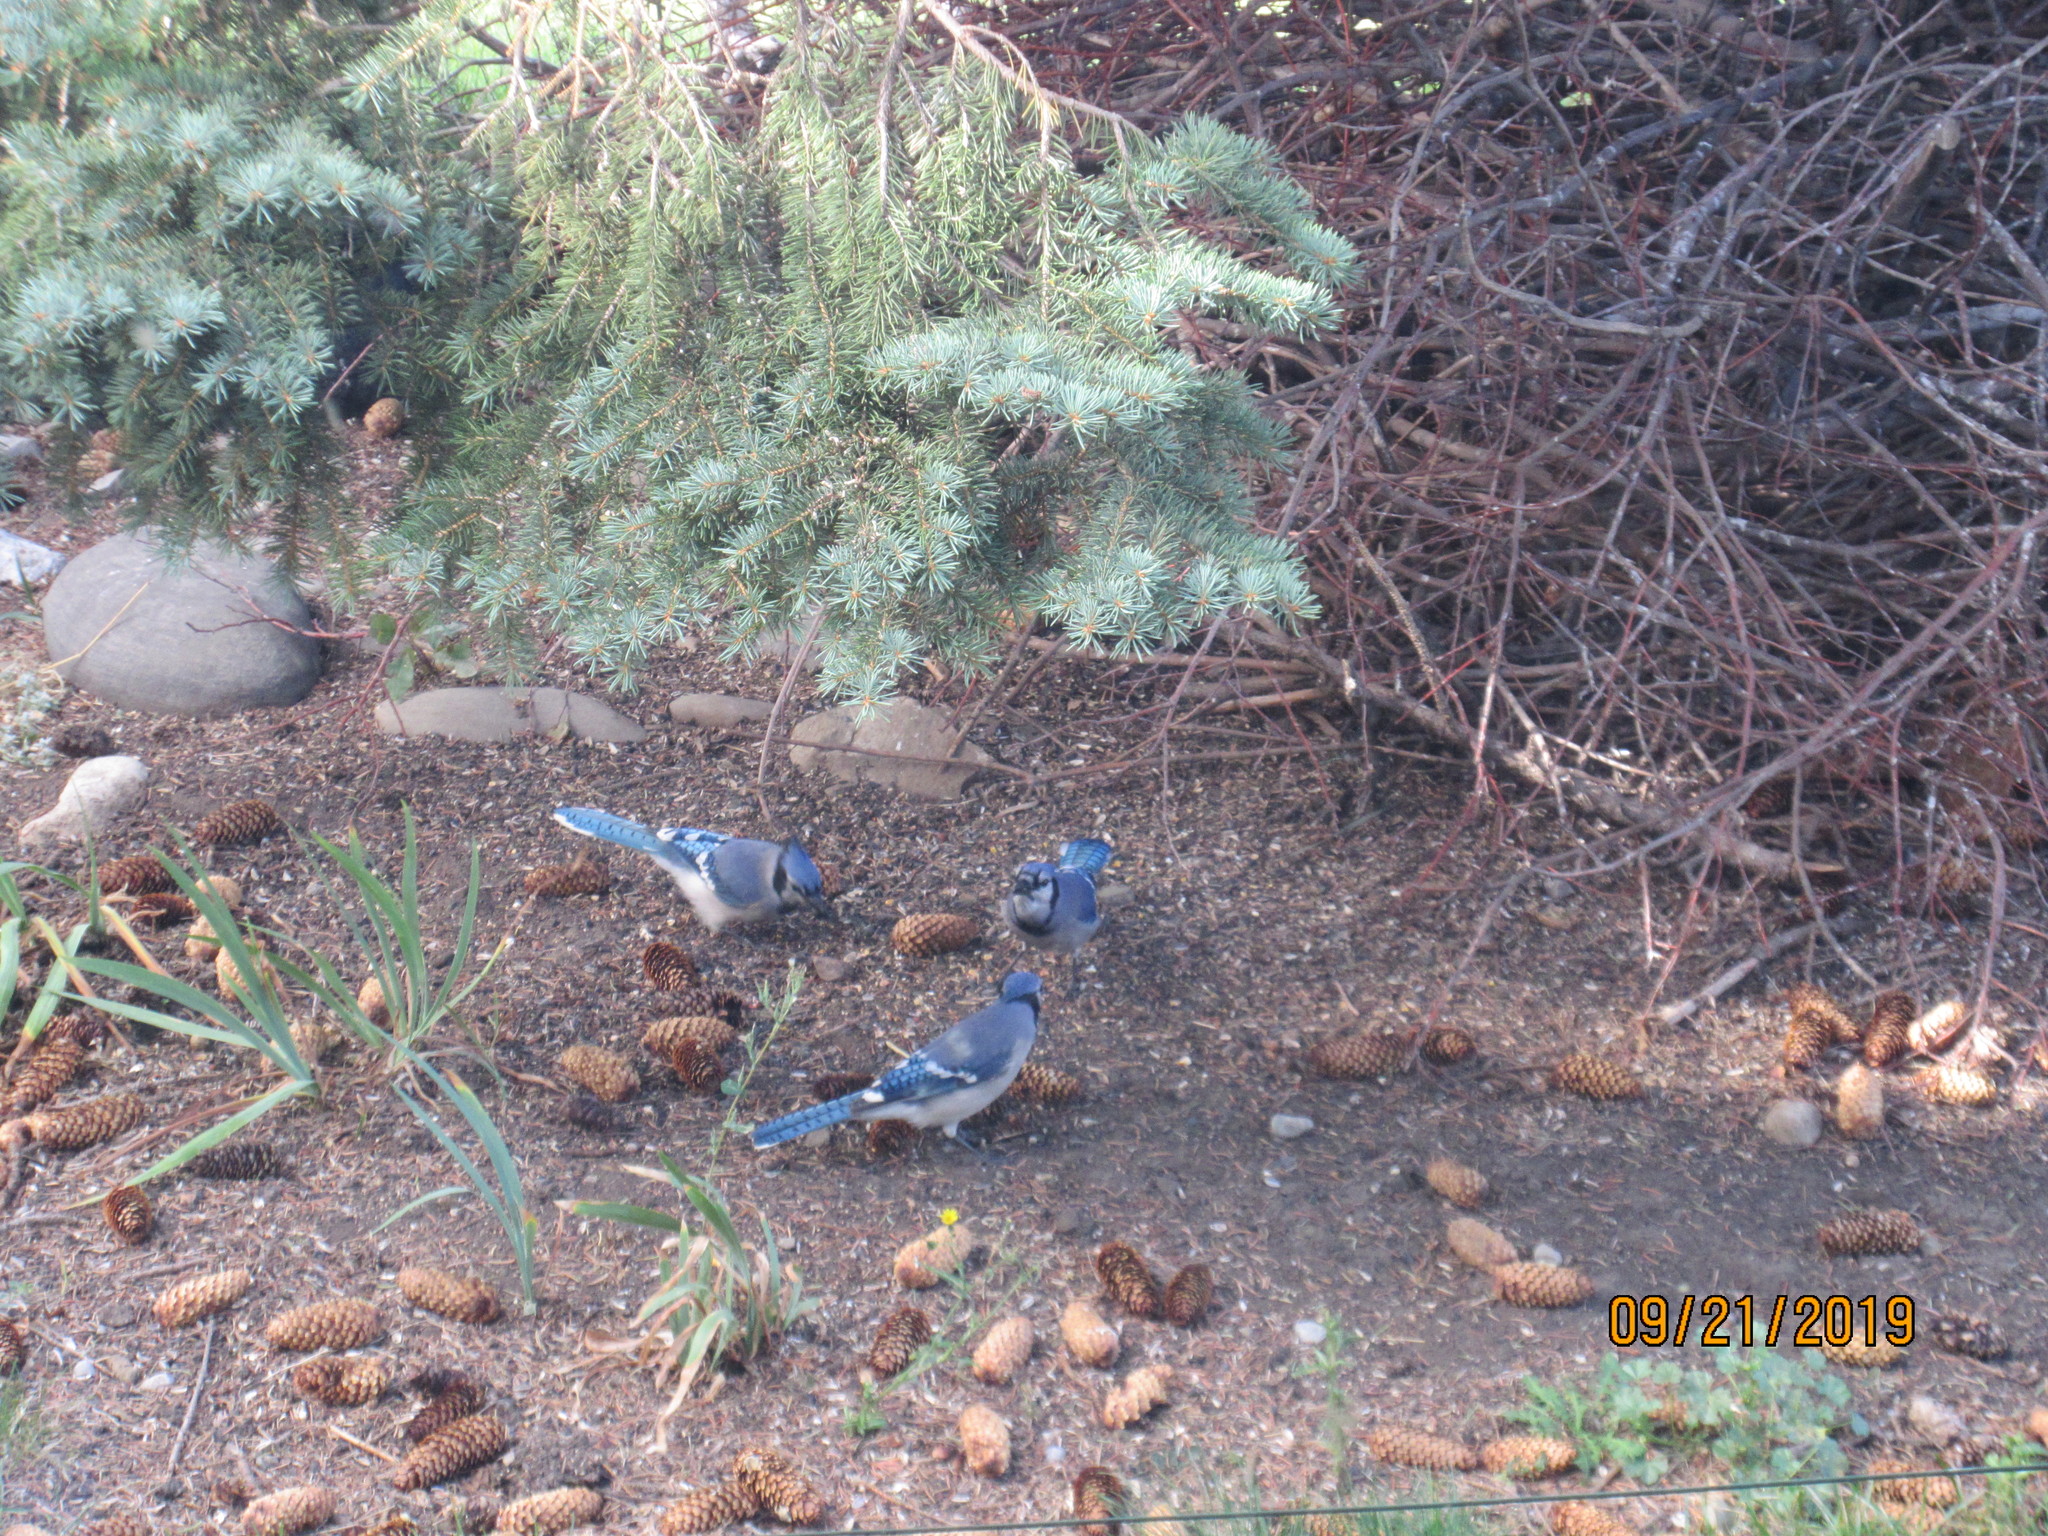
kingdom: Animalia
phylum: Chordata
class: Aves
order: Passeriformes
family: Corvidae
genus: Cyanocitta
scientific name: Cyanocitta cristata
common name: Blue jay
